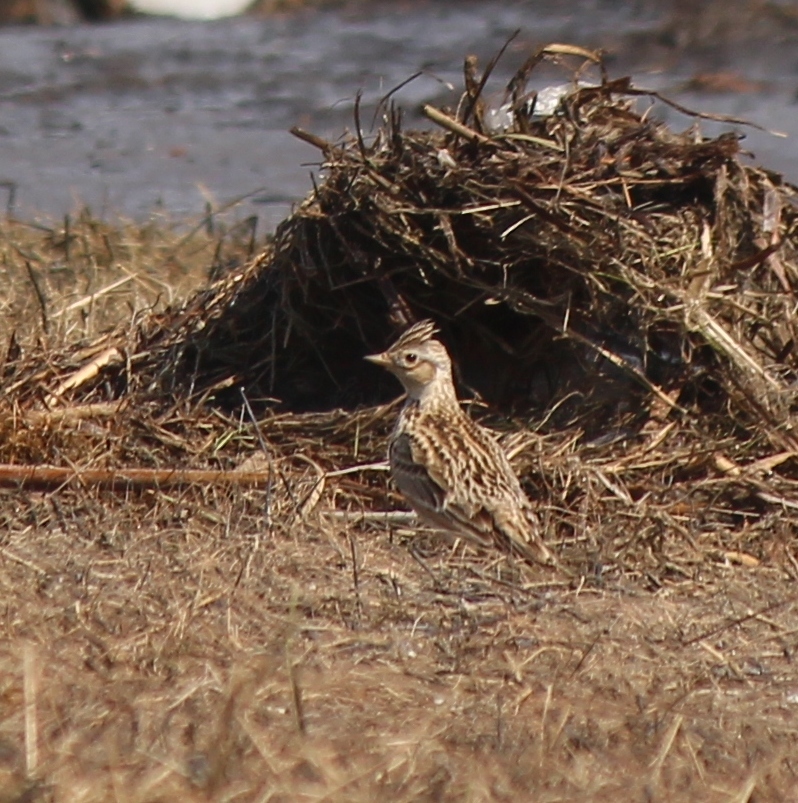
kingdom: Animalia
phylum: Chordata
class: Aves
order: Passeriformes
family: Alaudidae
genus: Alauda
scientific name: Alauda arvensis
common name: Eurasian skylark
